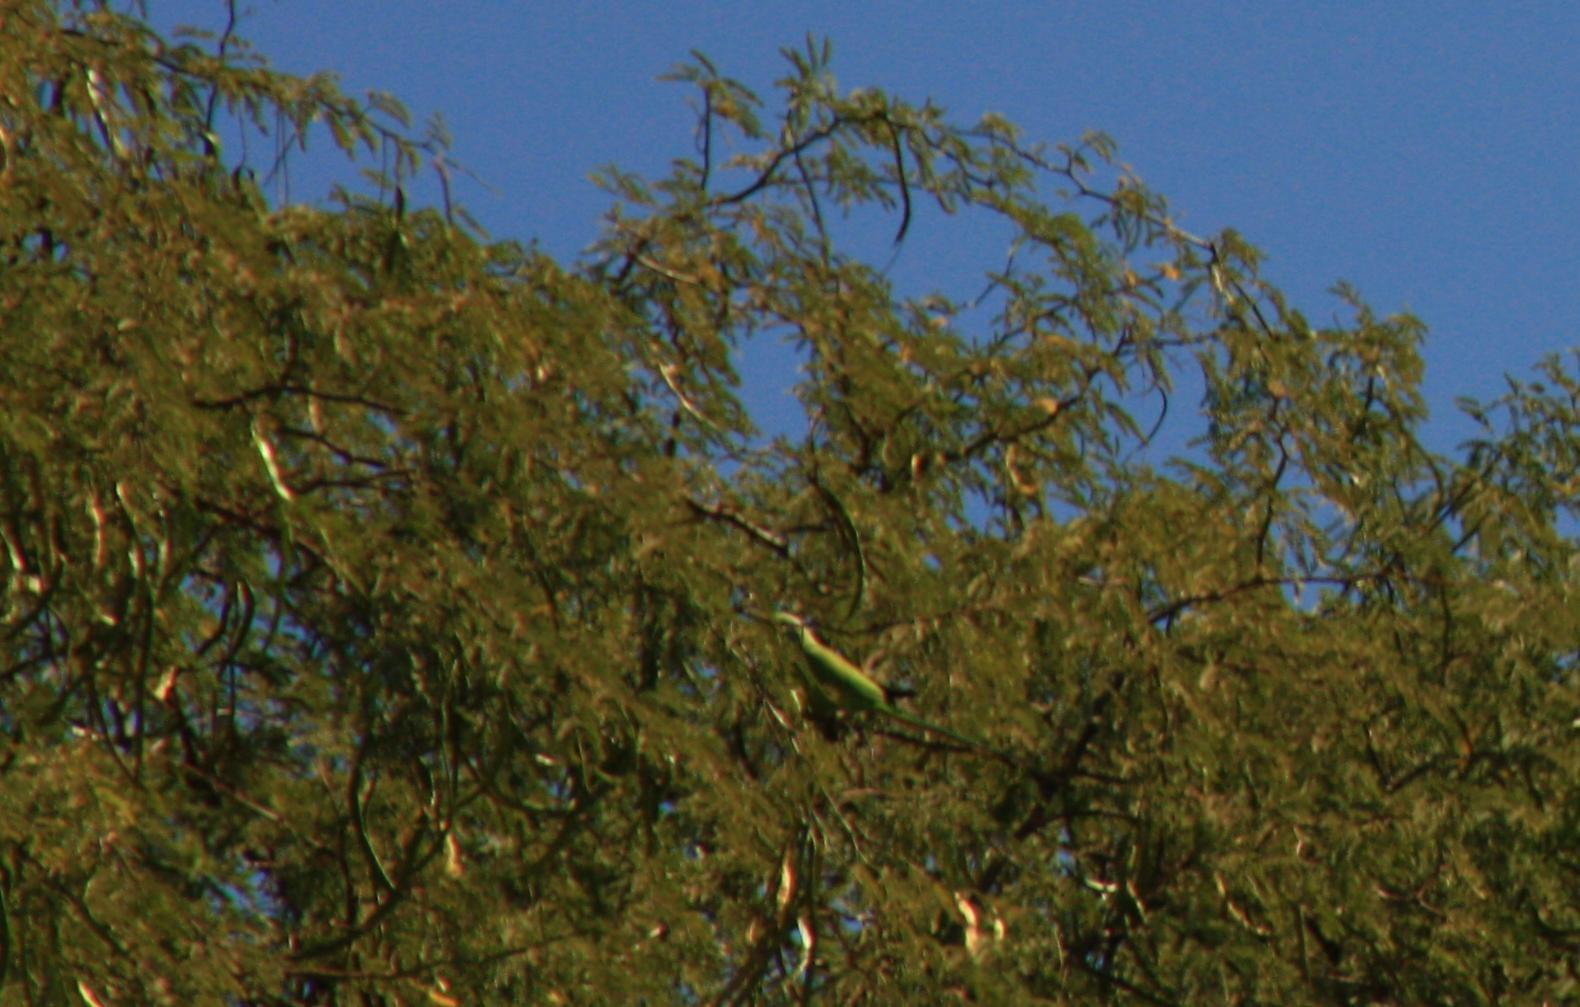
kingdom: Animalia
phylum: Chordata
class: Aves
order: Psittaciformes
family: Psittacidae
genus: Psittacula
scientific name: Psittacula krameri
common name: Rose-ringed parakeet
